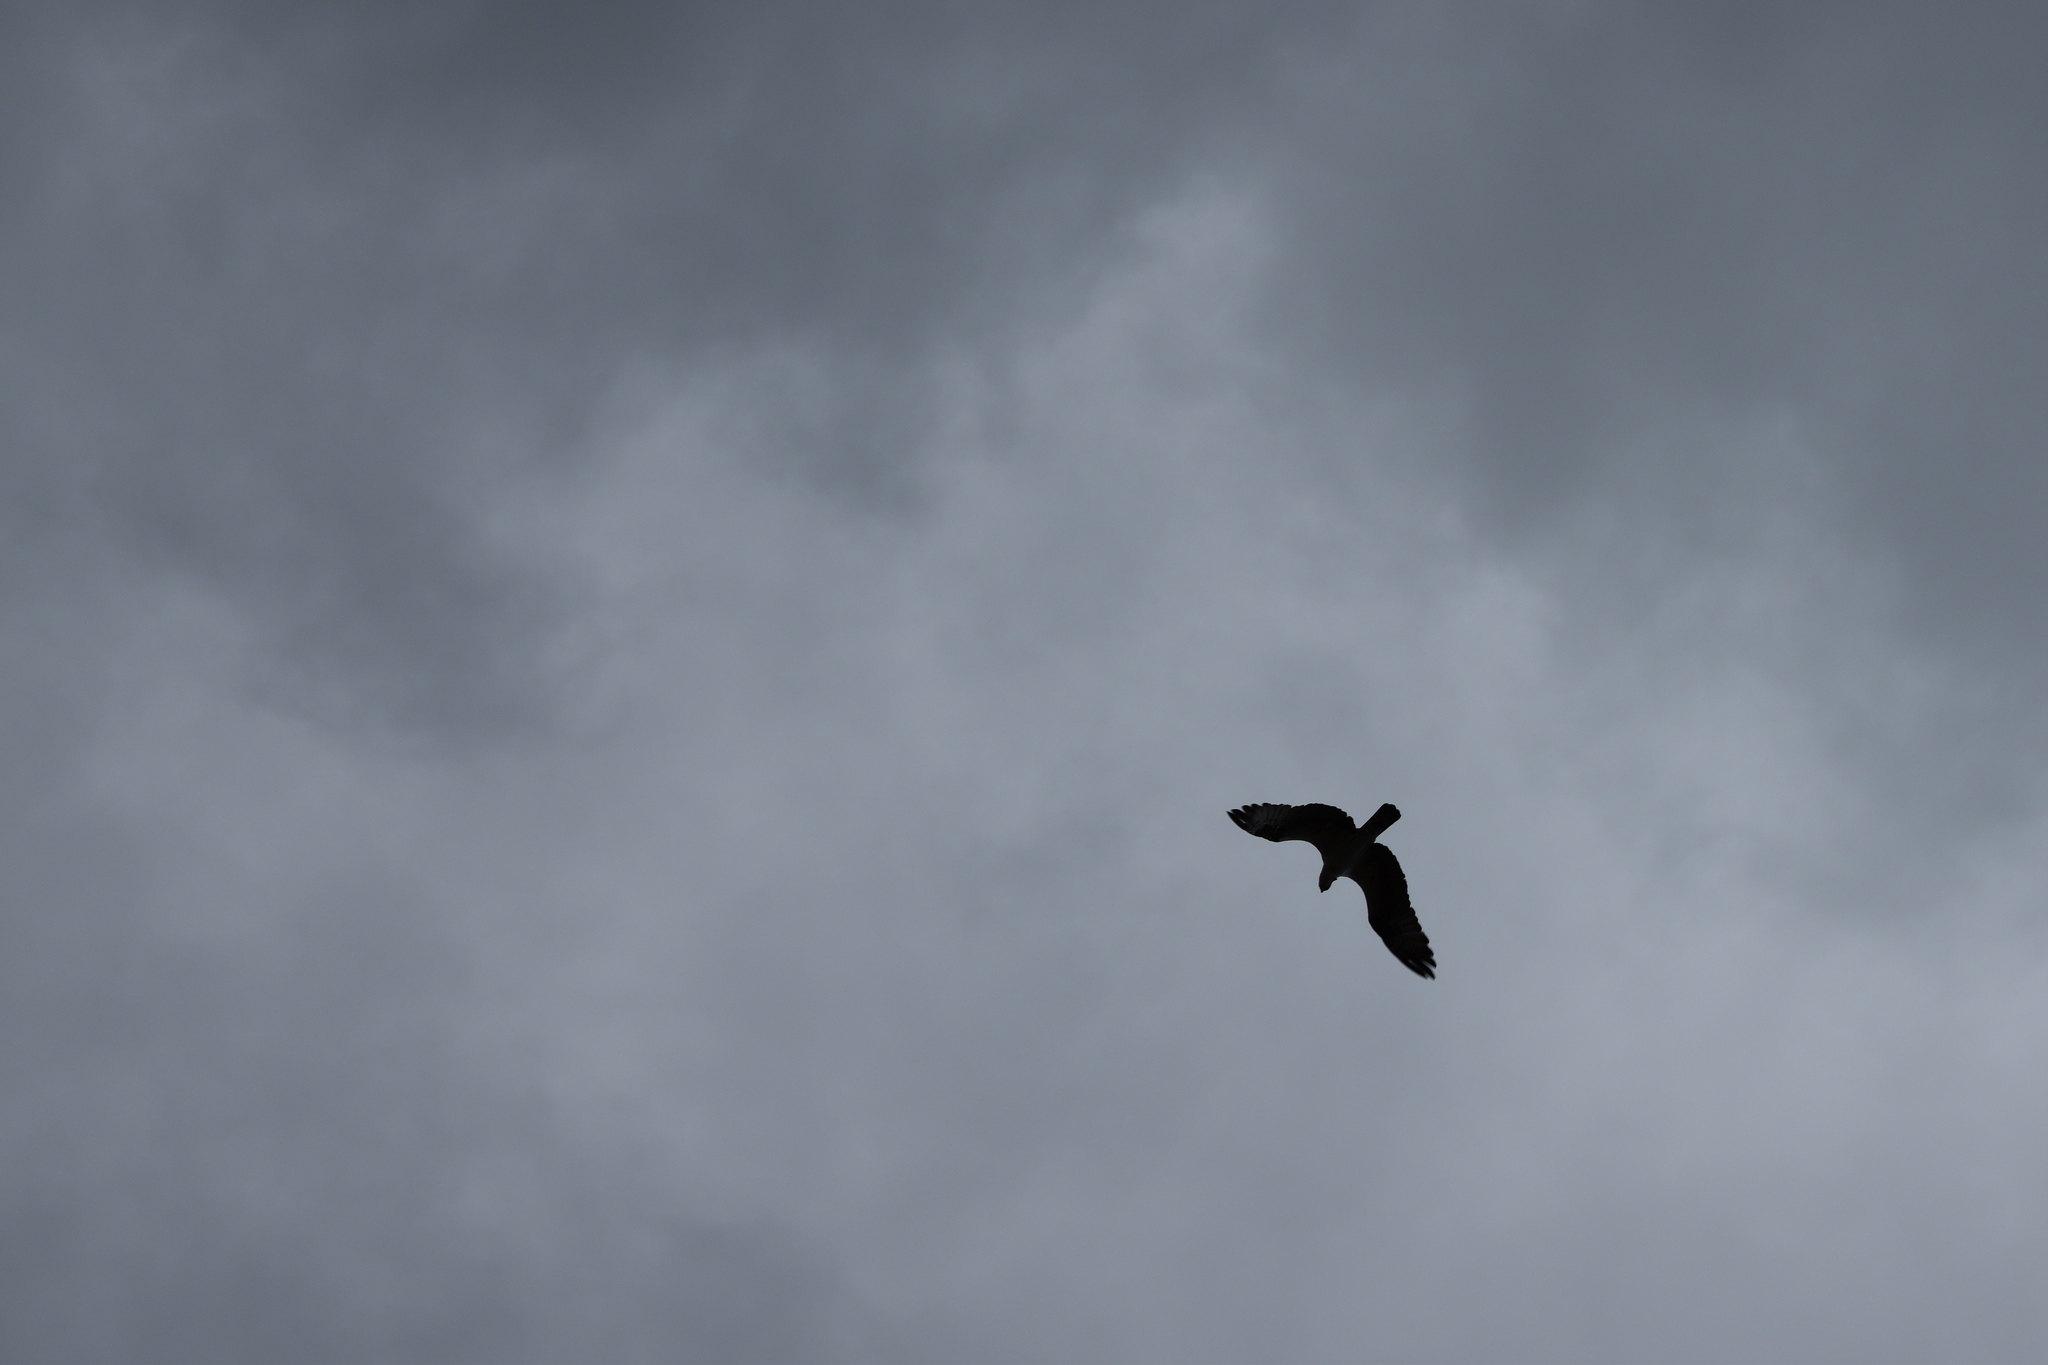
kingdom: Animalia
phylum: Chordata
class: Aves
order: Accipitriformes
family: Pandionidae
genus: Pandion
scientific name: Pandion haliaetus
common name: Osprey
